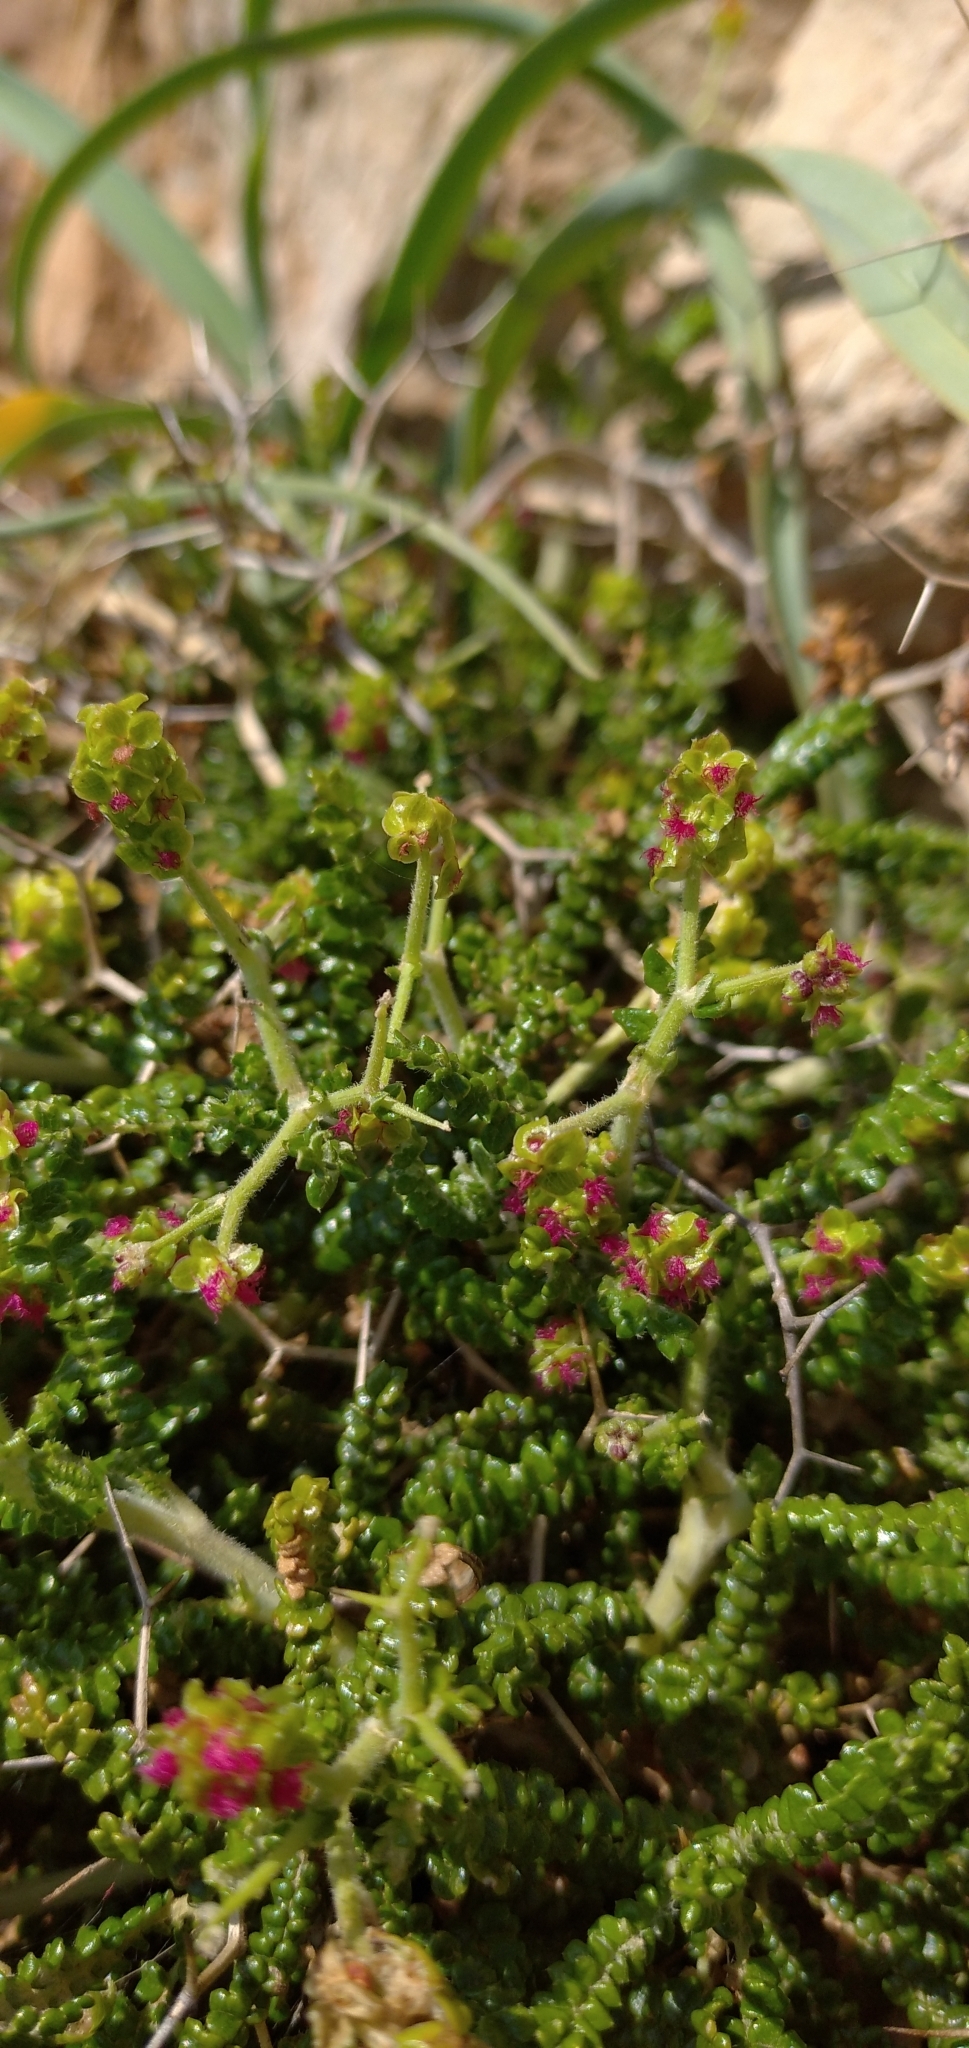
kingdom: Plantae
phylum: Tracheophyta
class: Magnoliopsida
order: Rosales
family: Rosaceae
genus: Sarcopoterium
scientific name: Sarcopoterium spinosum
